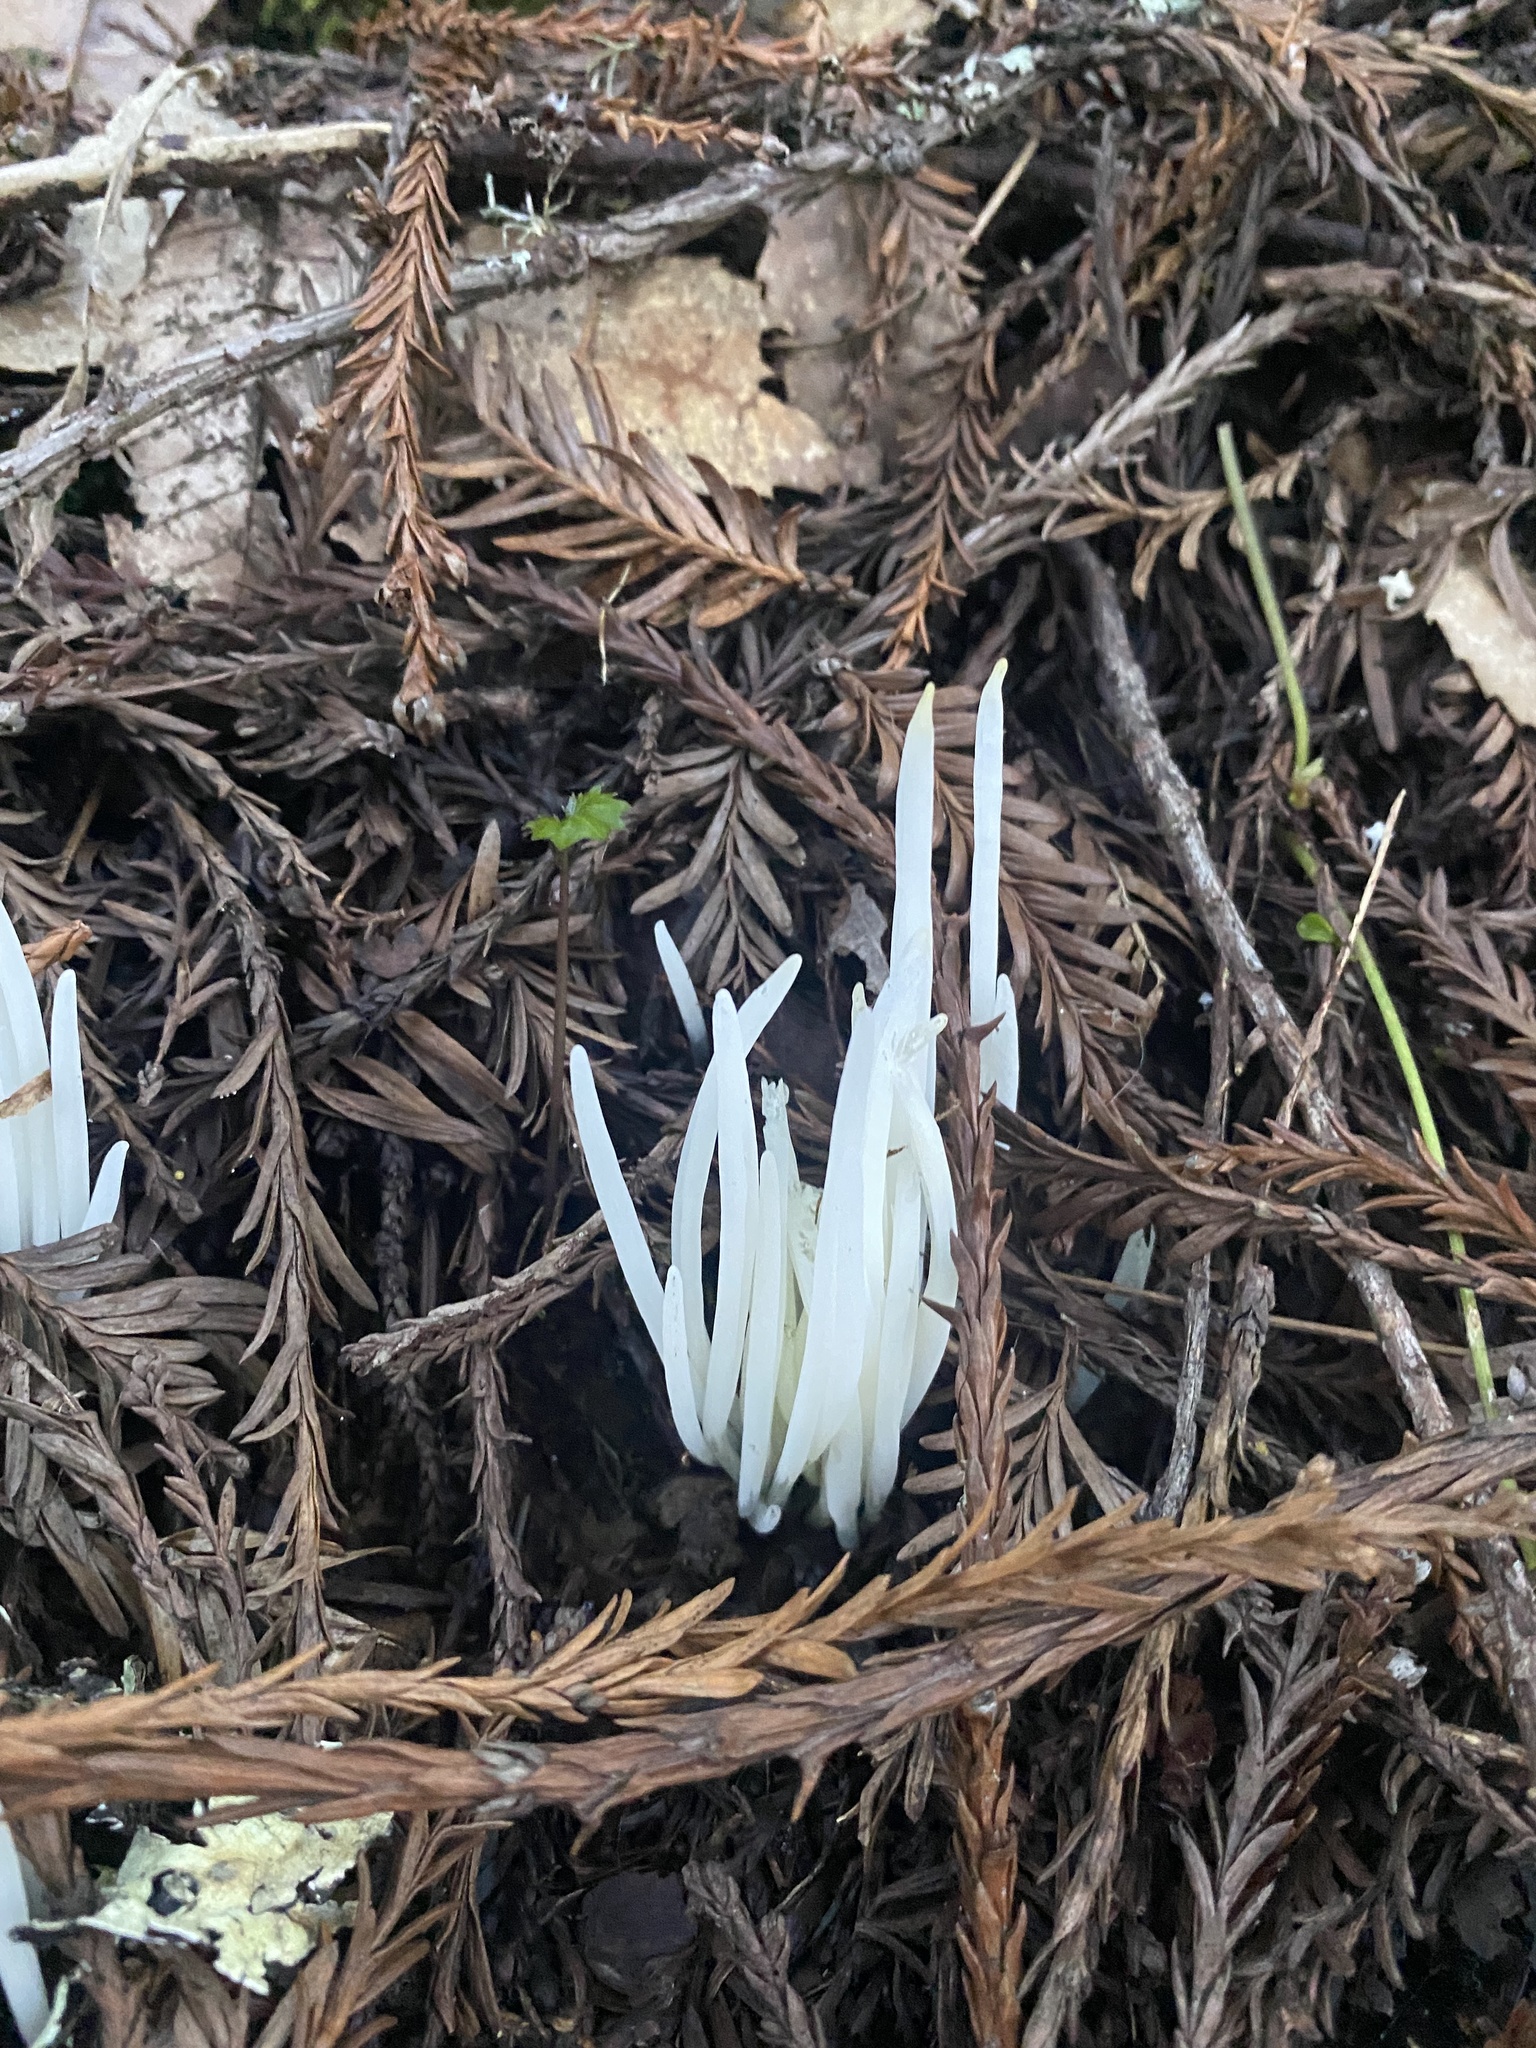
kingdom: Fungi
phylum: Basidiomycota
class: Agaricomycetes
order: Agaricales
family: Clavariaceae
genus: Clavaria
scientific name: Clavaria fragilis
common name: White spindles
